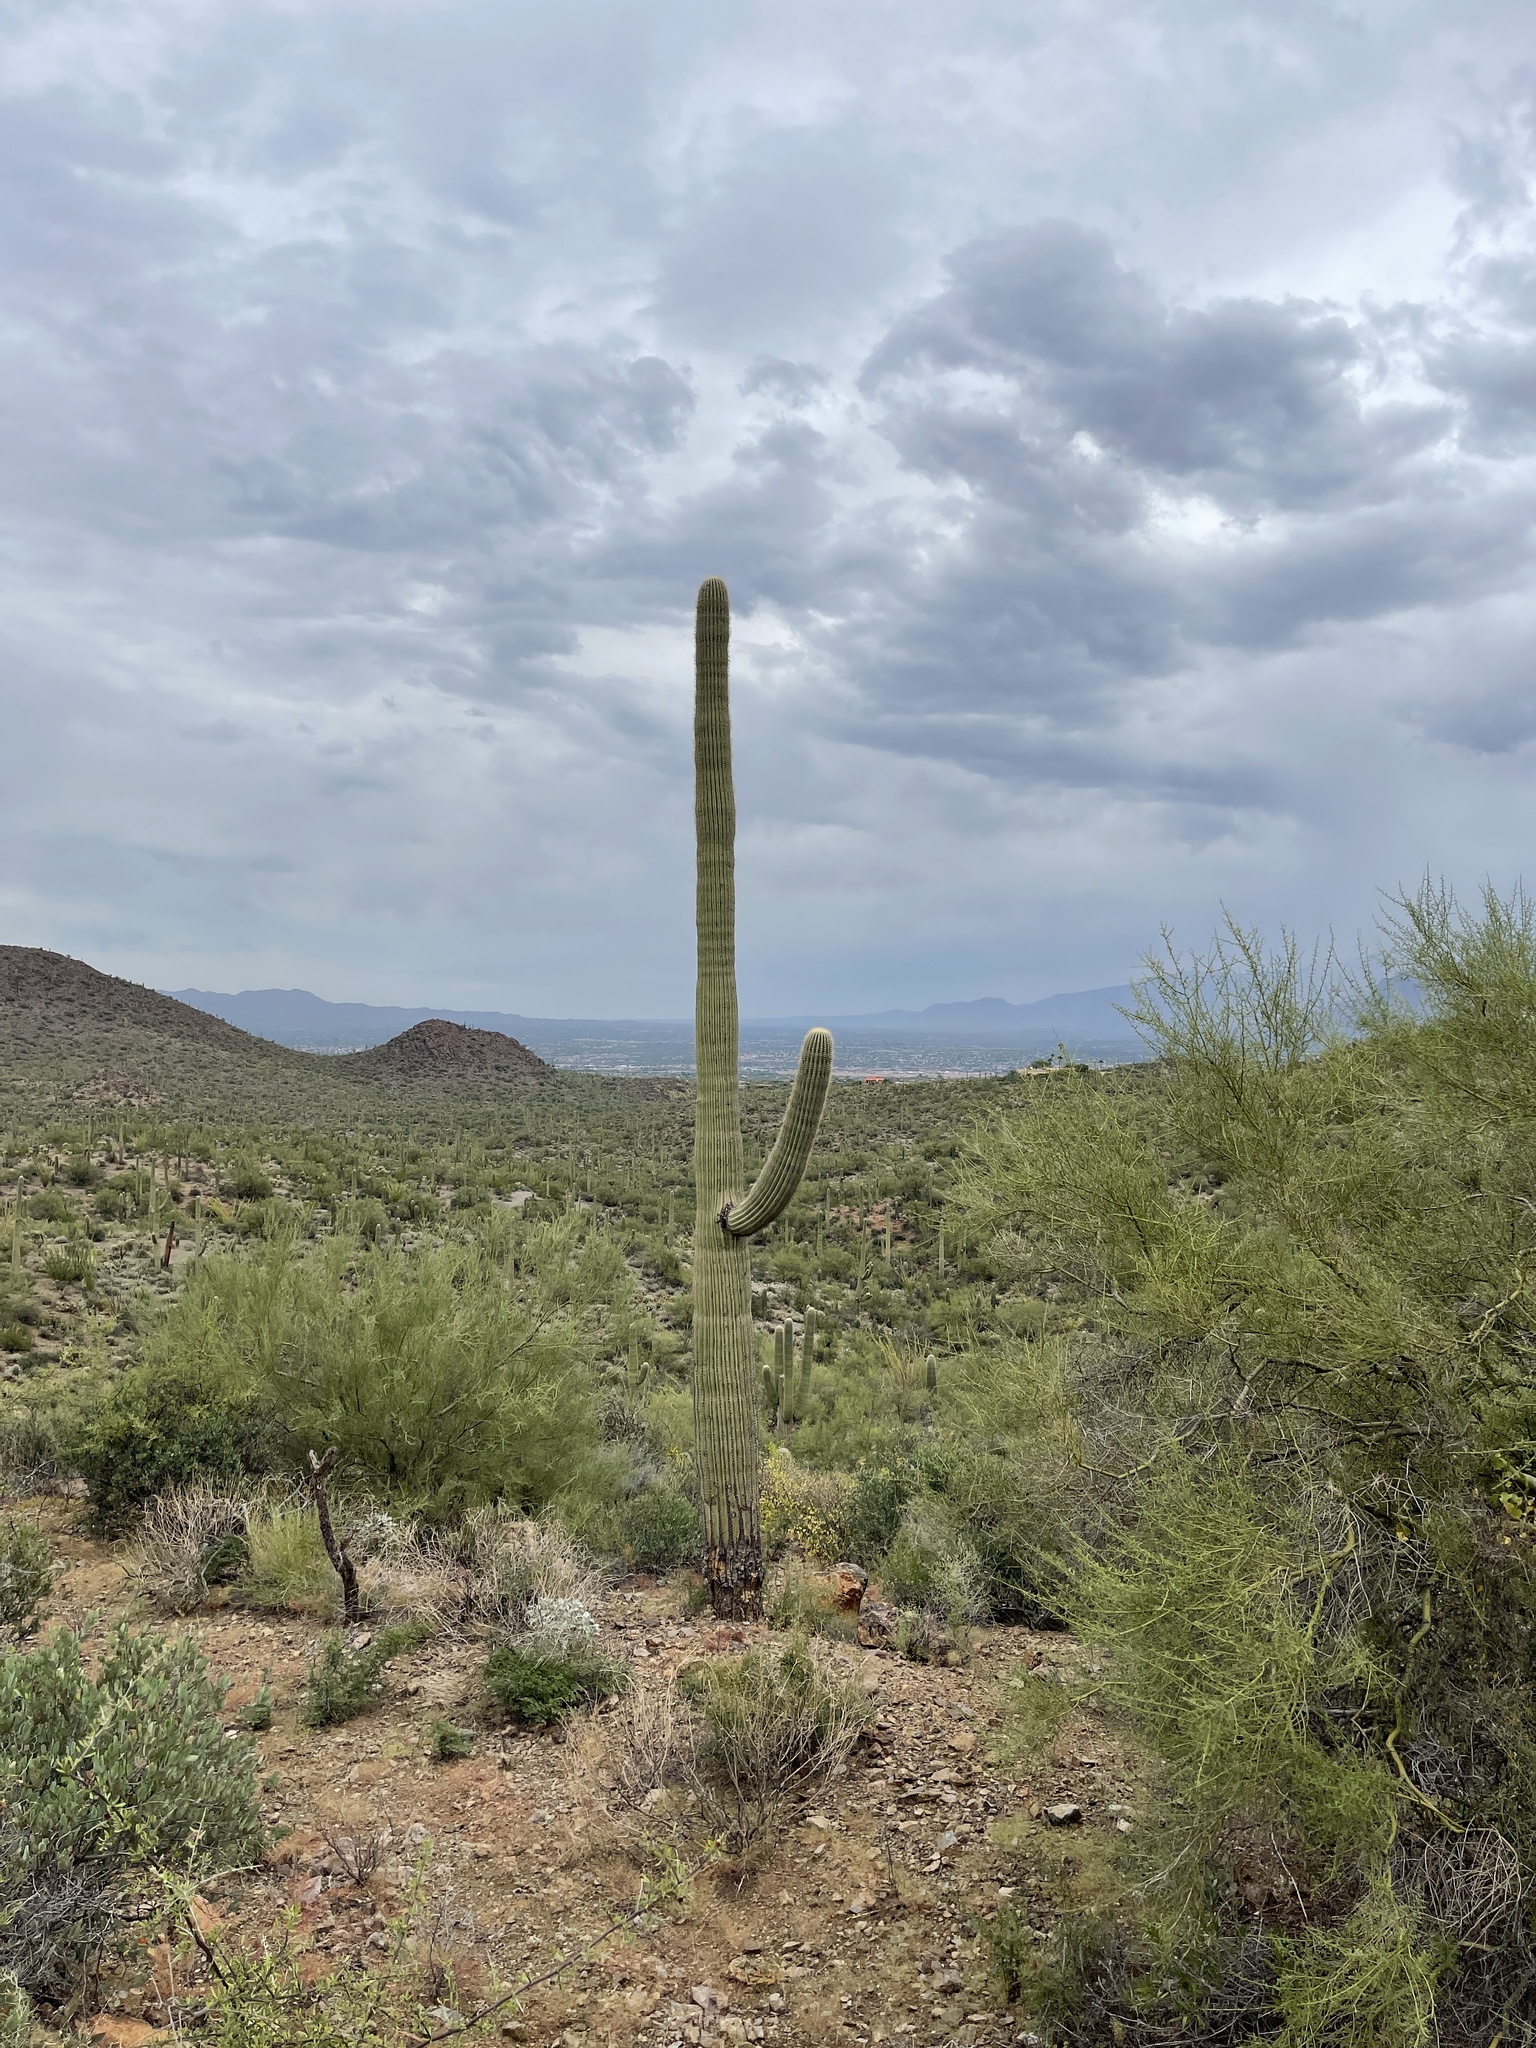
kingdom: Plantae
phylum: Tracheophyta
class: Magnoliopsida
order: Caryophyllales
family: Cactaceae
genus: Carnegiea
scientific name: Carnegiea gigantea
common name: Saguaro
